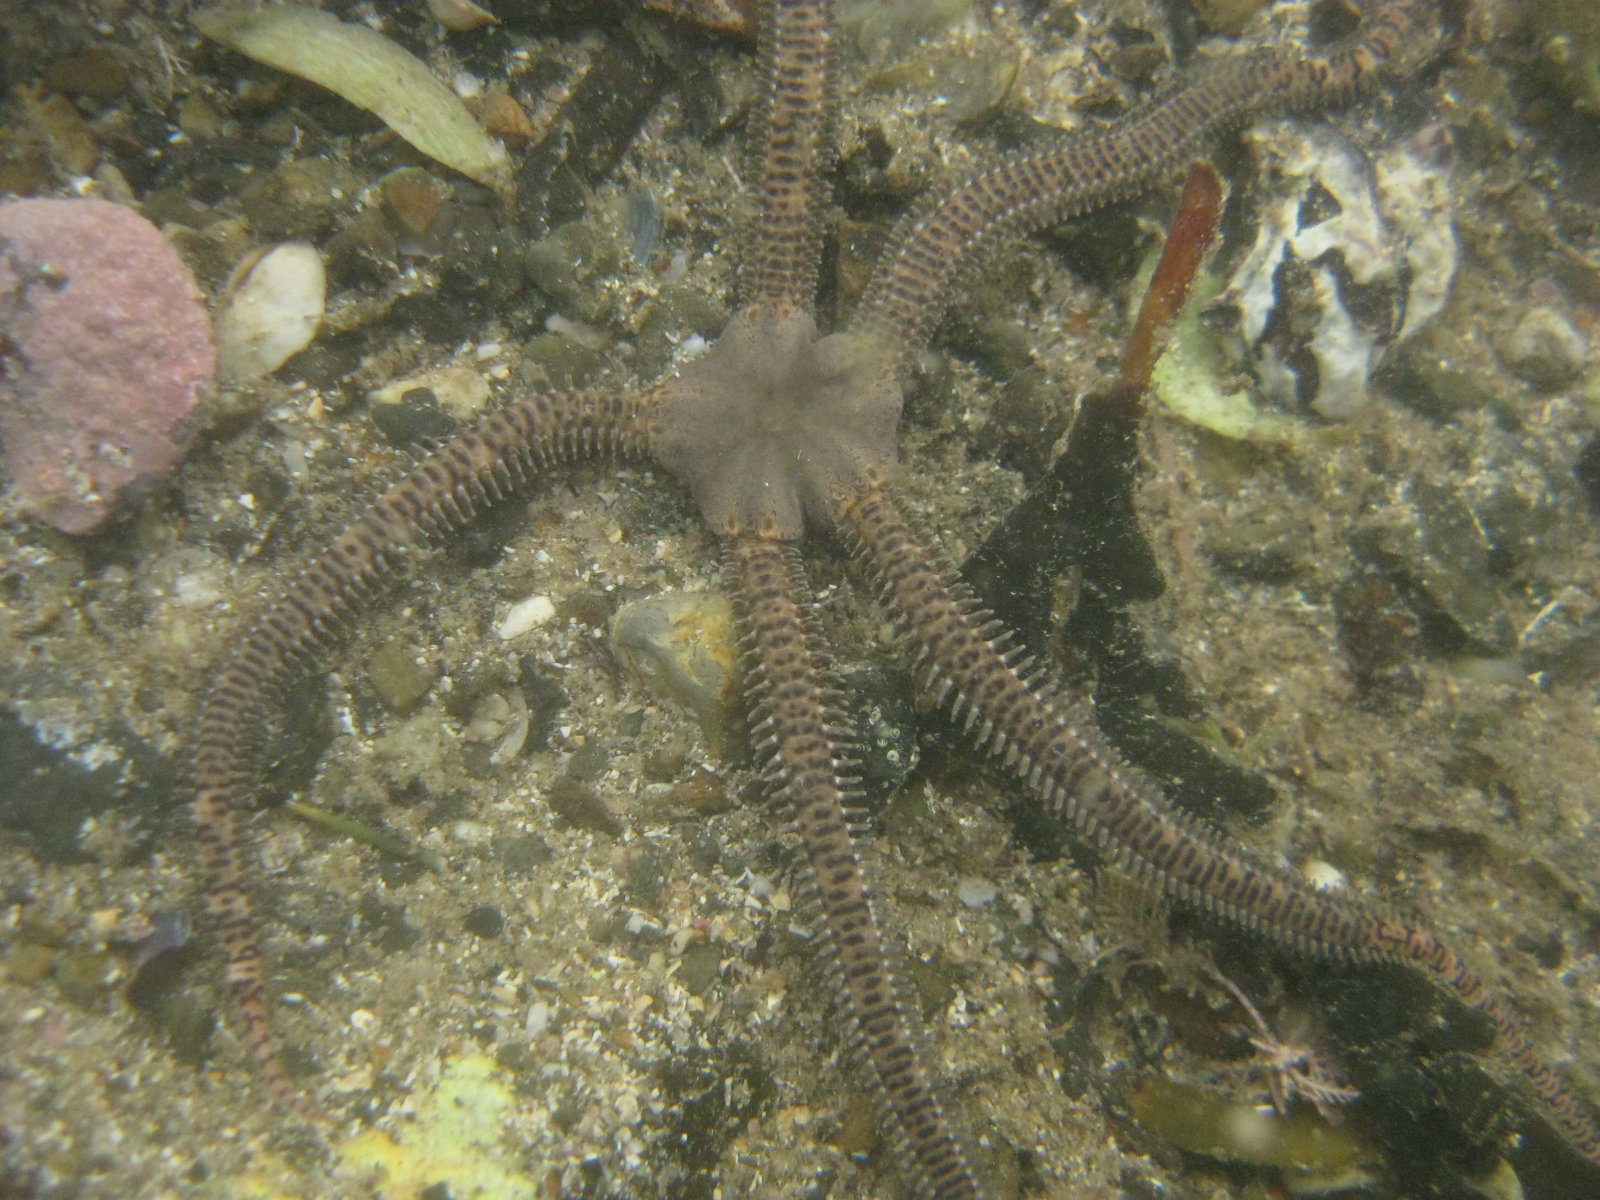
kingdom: Animalia
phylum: Echinodermata
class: Ophiuroidea
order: Amphilepidida
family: Ophionereididae
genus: Ophionereis
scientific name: Ophionereis fasciata
